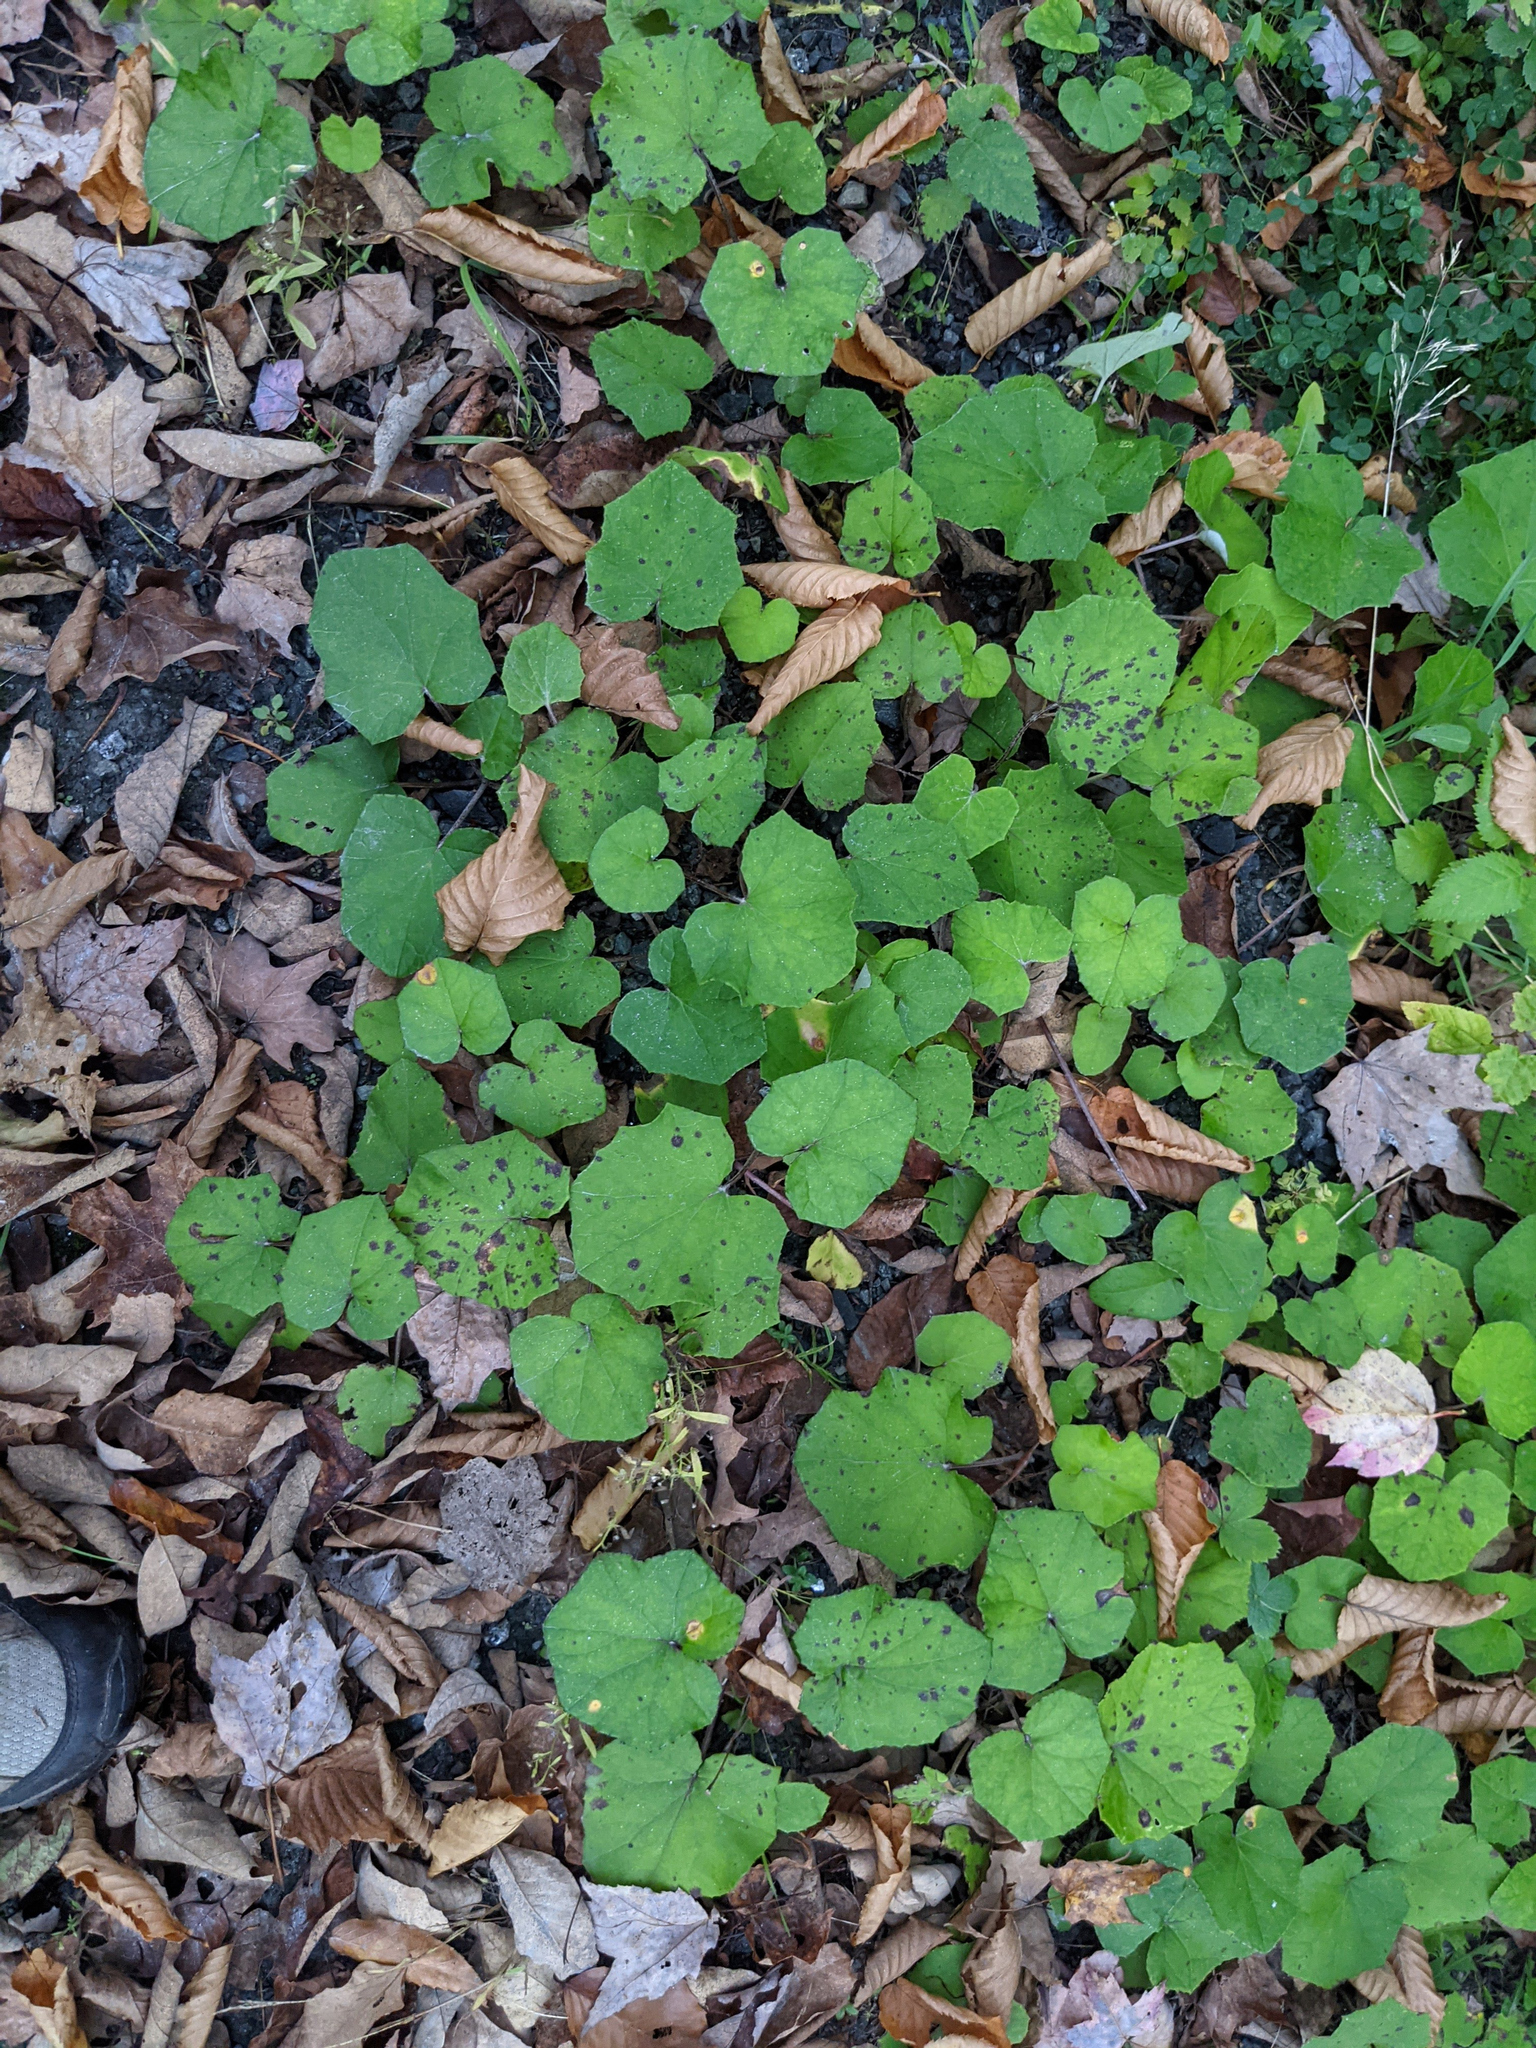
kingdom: Plantae
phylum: Tracheophyta
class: Magnoliopsida
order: Asterales
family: Asteraceae
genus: Tussilago
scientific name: Tussilago farfara
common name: Coltsfoot
